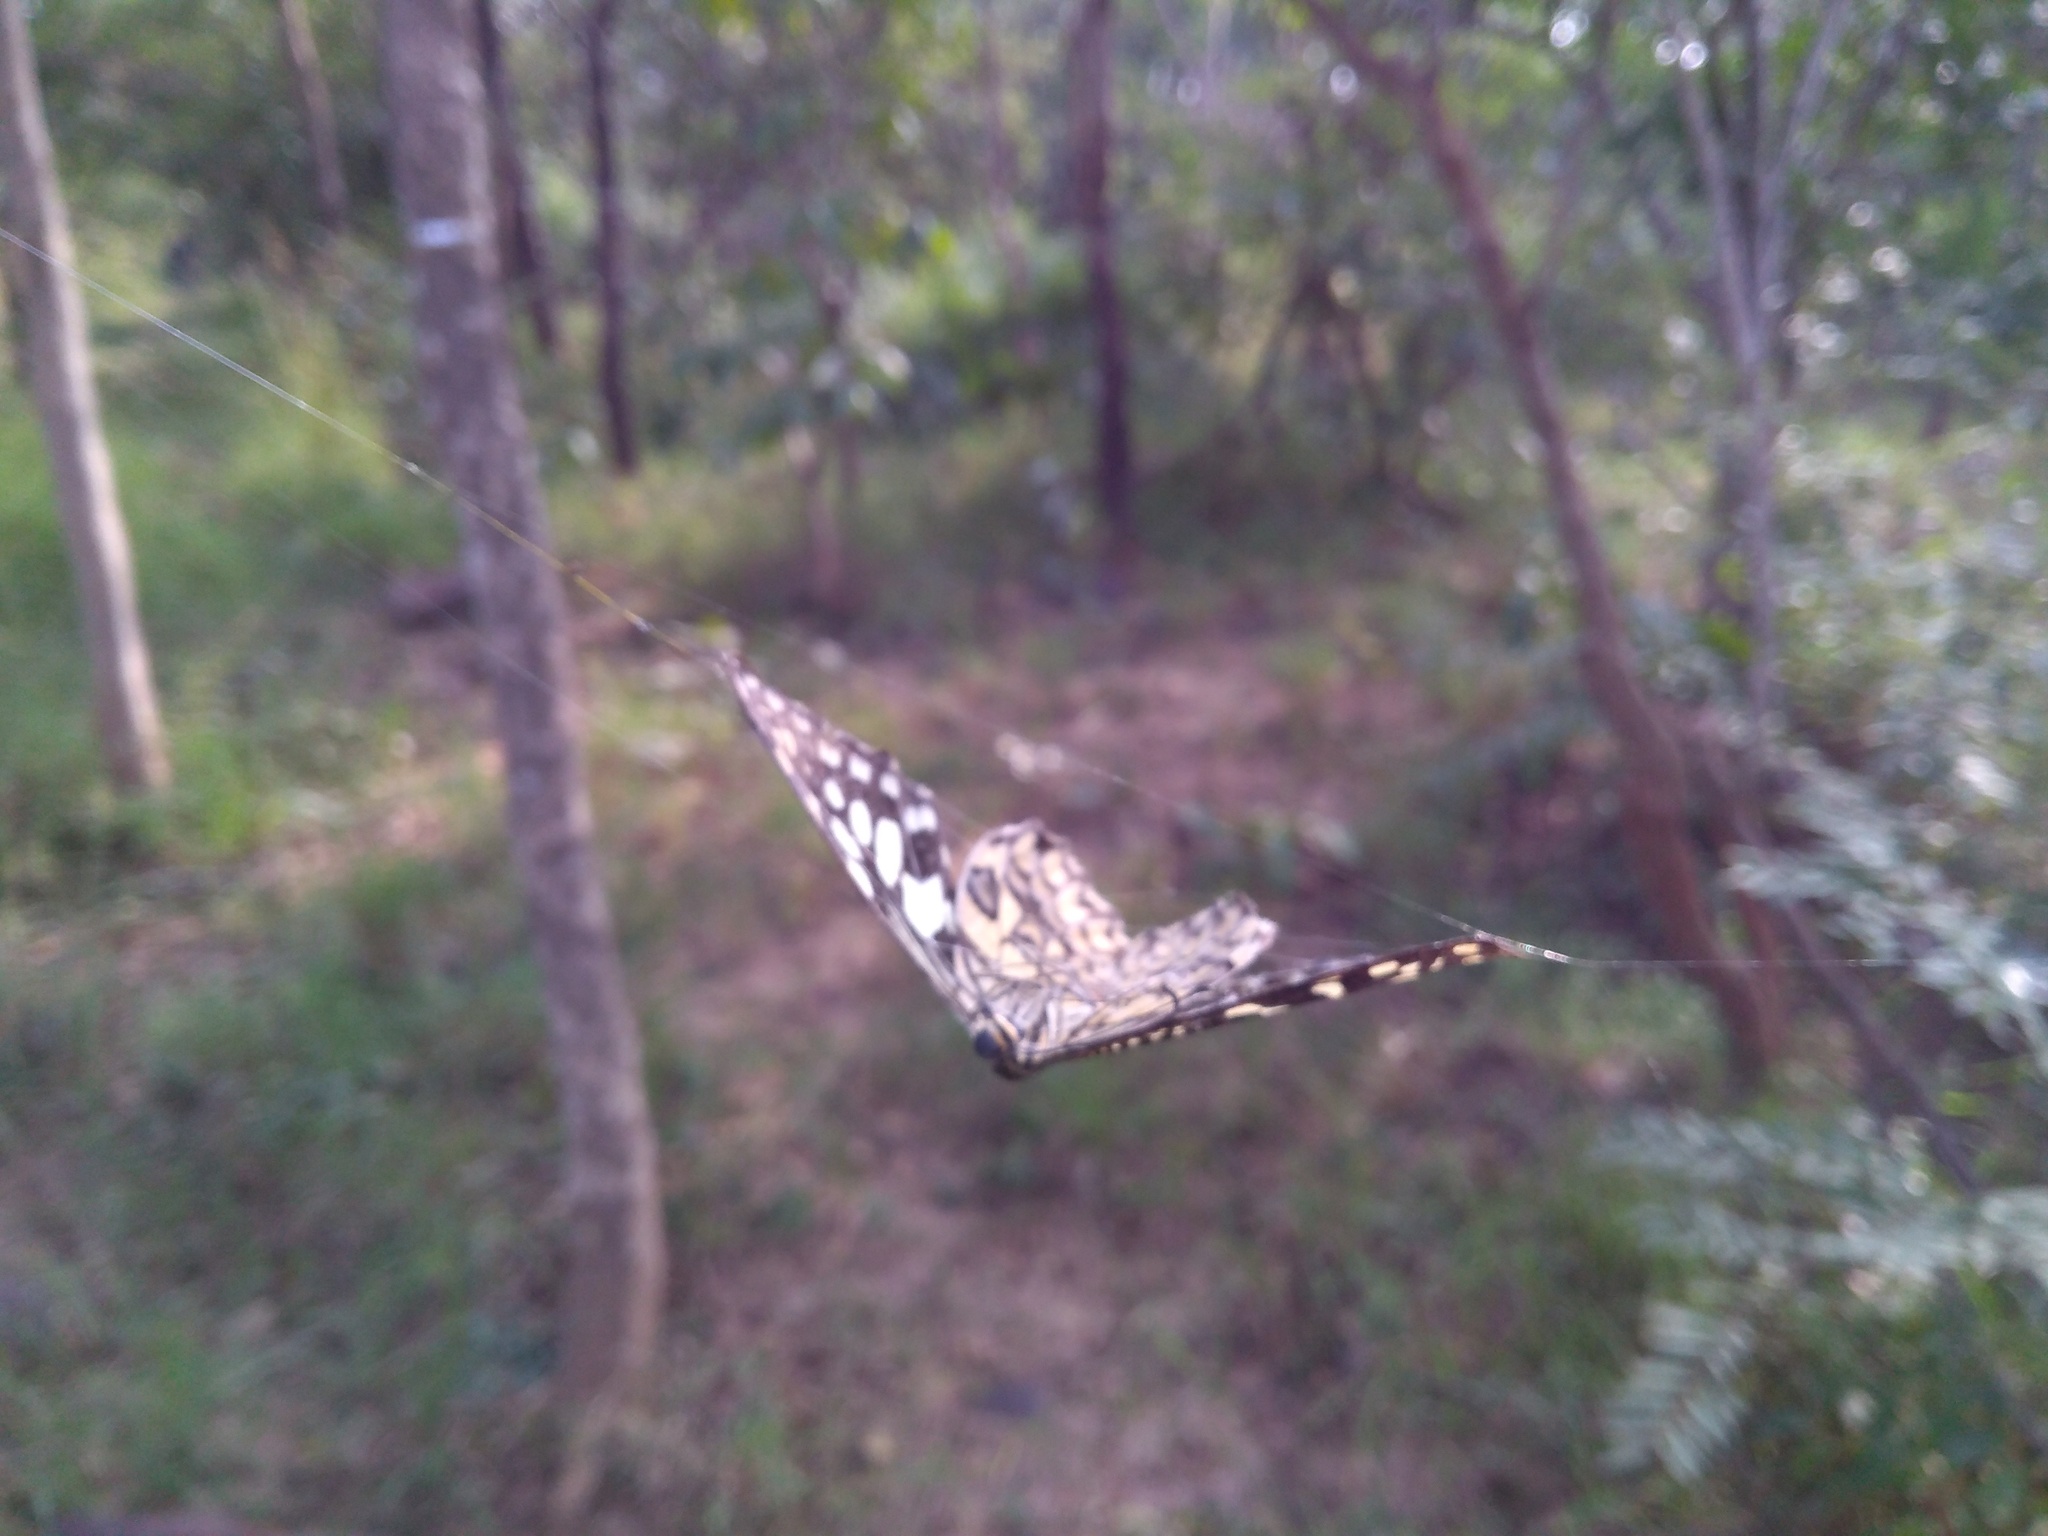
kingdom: Animalia
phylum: Arthropoda
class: Insecta
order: Lepidoptera
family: Papilionidae
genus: Papilio
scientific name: Papilio demoleus
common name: Lime butterfly
